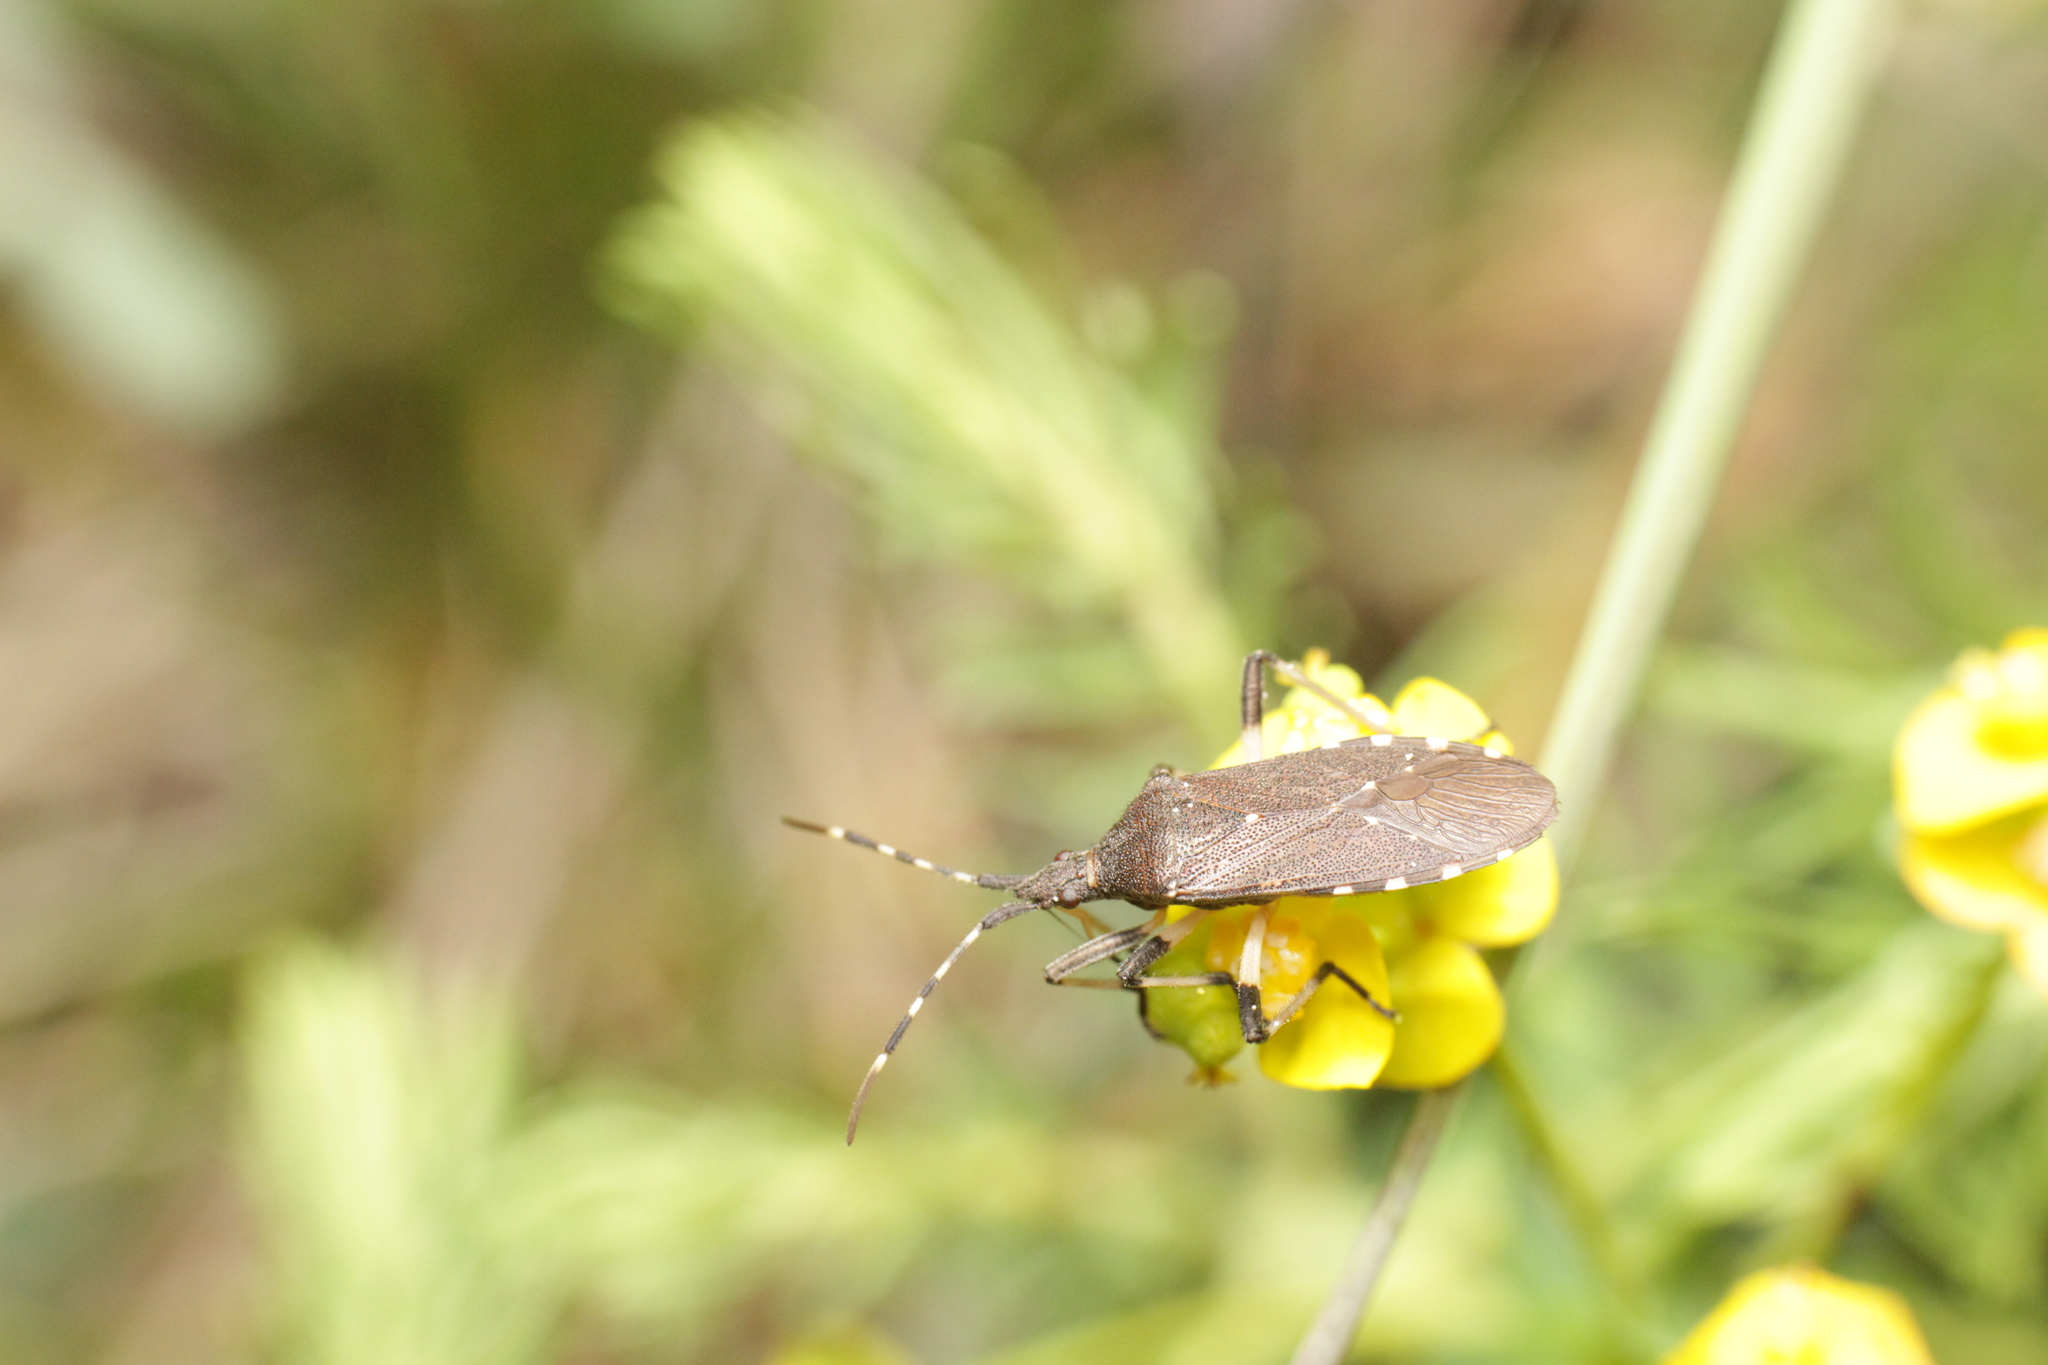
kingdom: Animalia
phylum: Arthropoda
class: Insecta
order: Hemiptera
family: Stenocephalidae
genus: Dicranocephalus
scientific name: Dicranocephalus agilis
